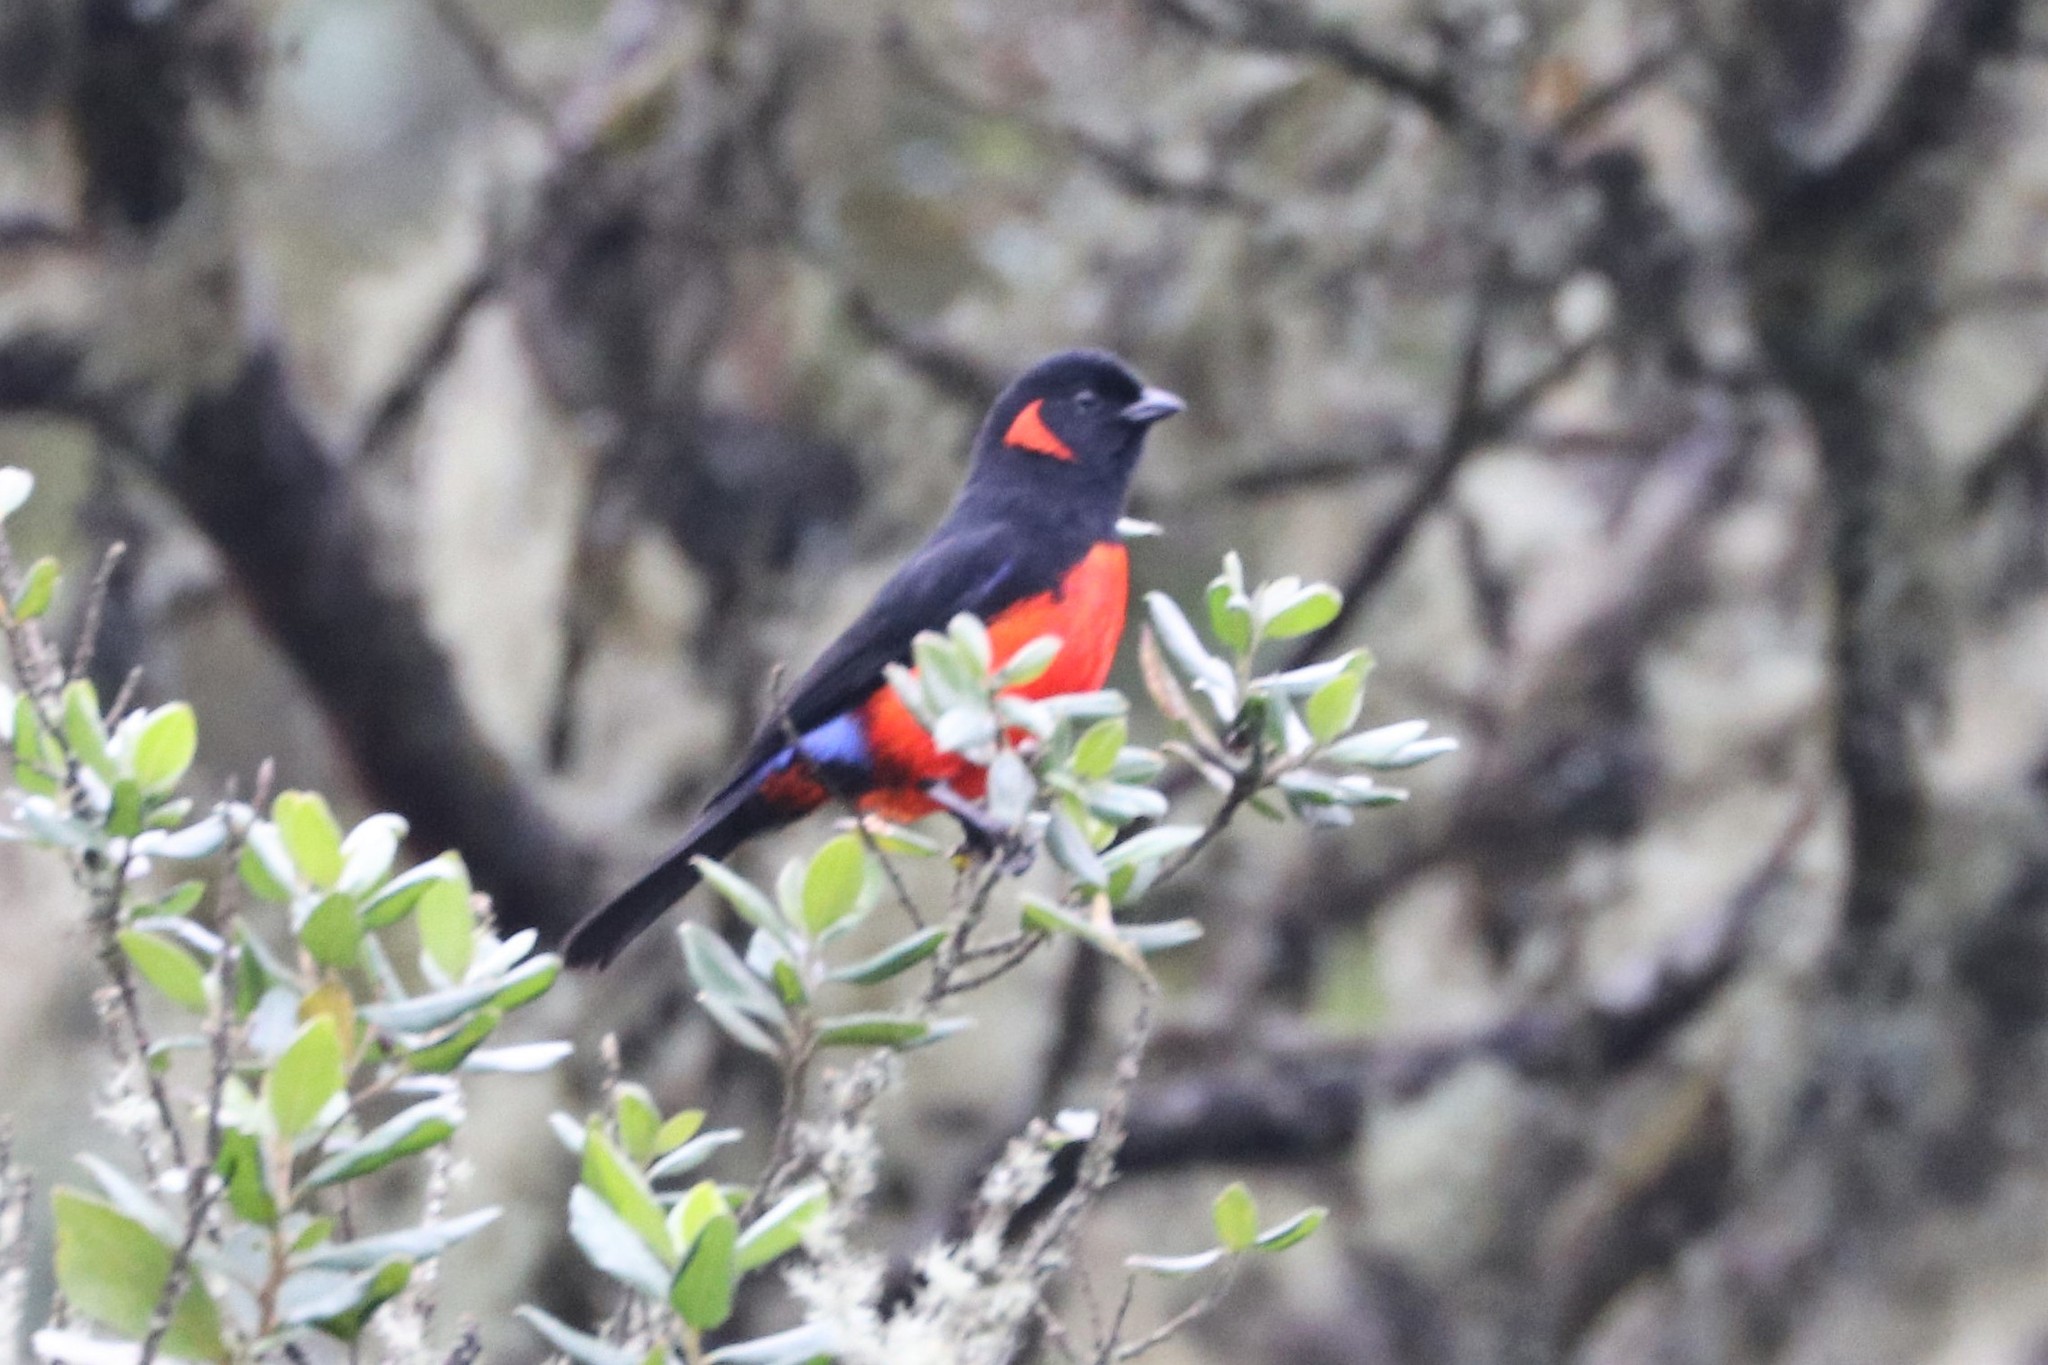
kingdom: Animalia
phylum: Chordata
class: Aves
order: Passeriformes
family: Thraupidae
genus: Anisognathus
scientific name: Anisognathus igniventris
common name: Scarlet-bellied mountain tanager
